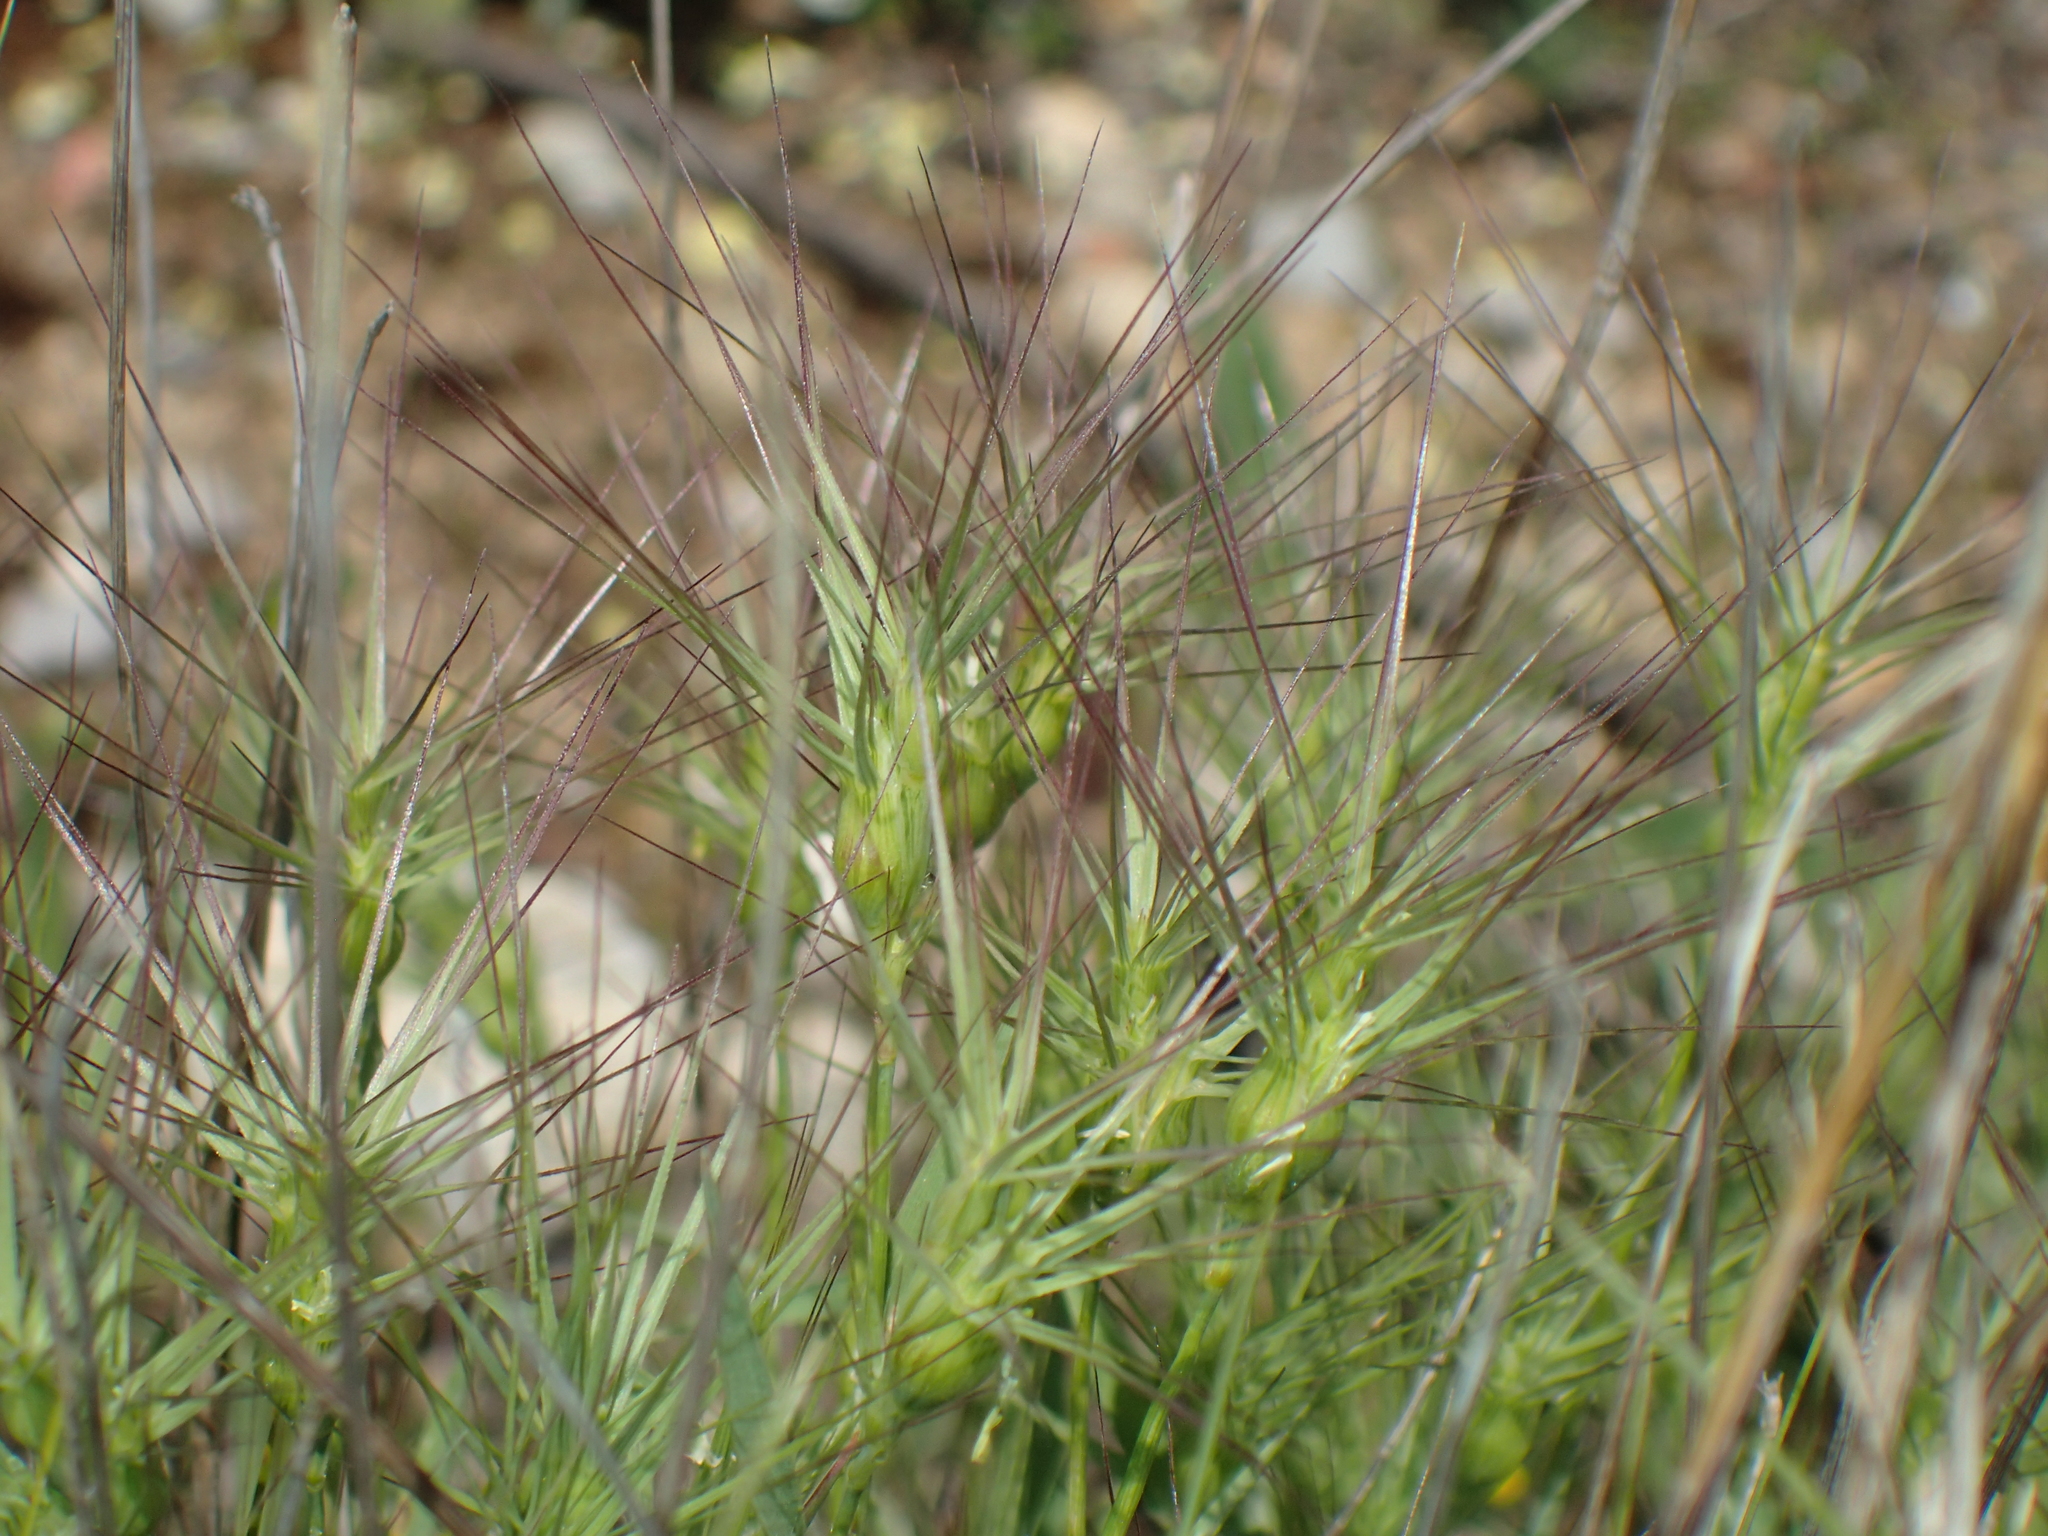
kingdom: Plantae
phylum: Tracheophyta
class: Liliopsida
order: Poales
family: Poaceae
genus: Aegilops
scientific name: Aegilops geniculata
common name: Ovate goat grass
